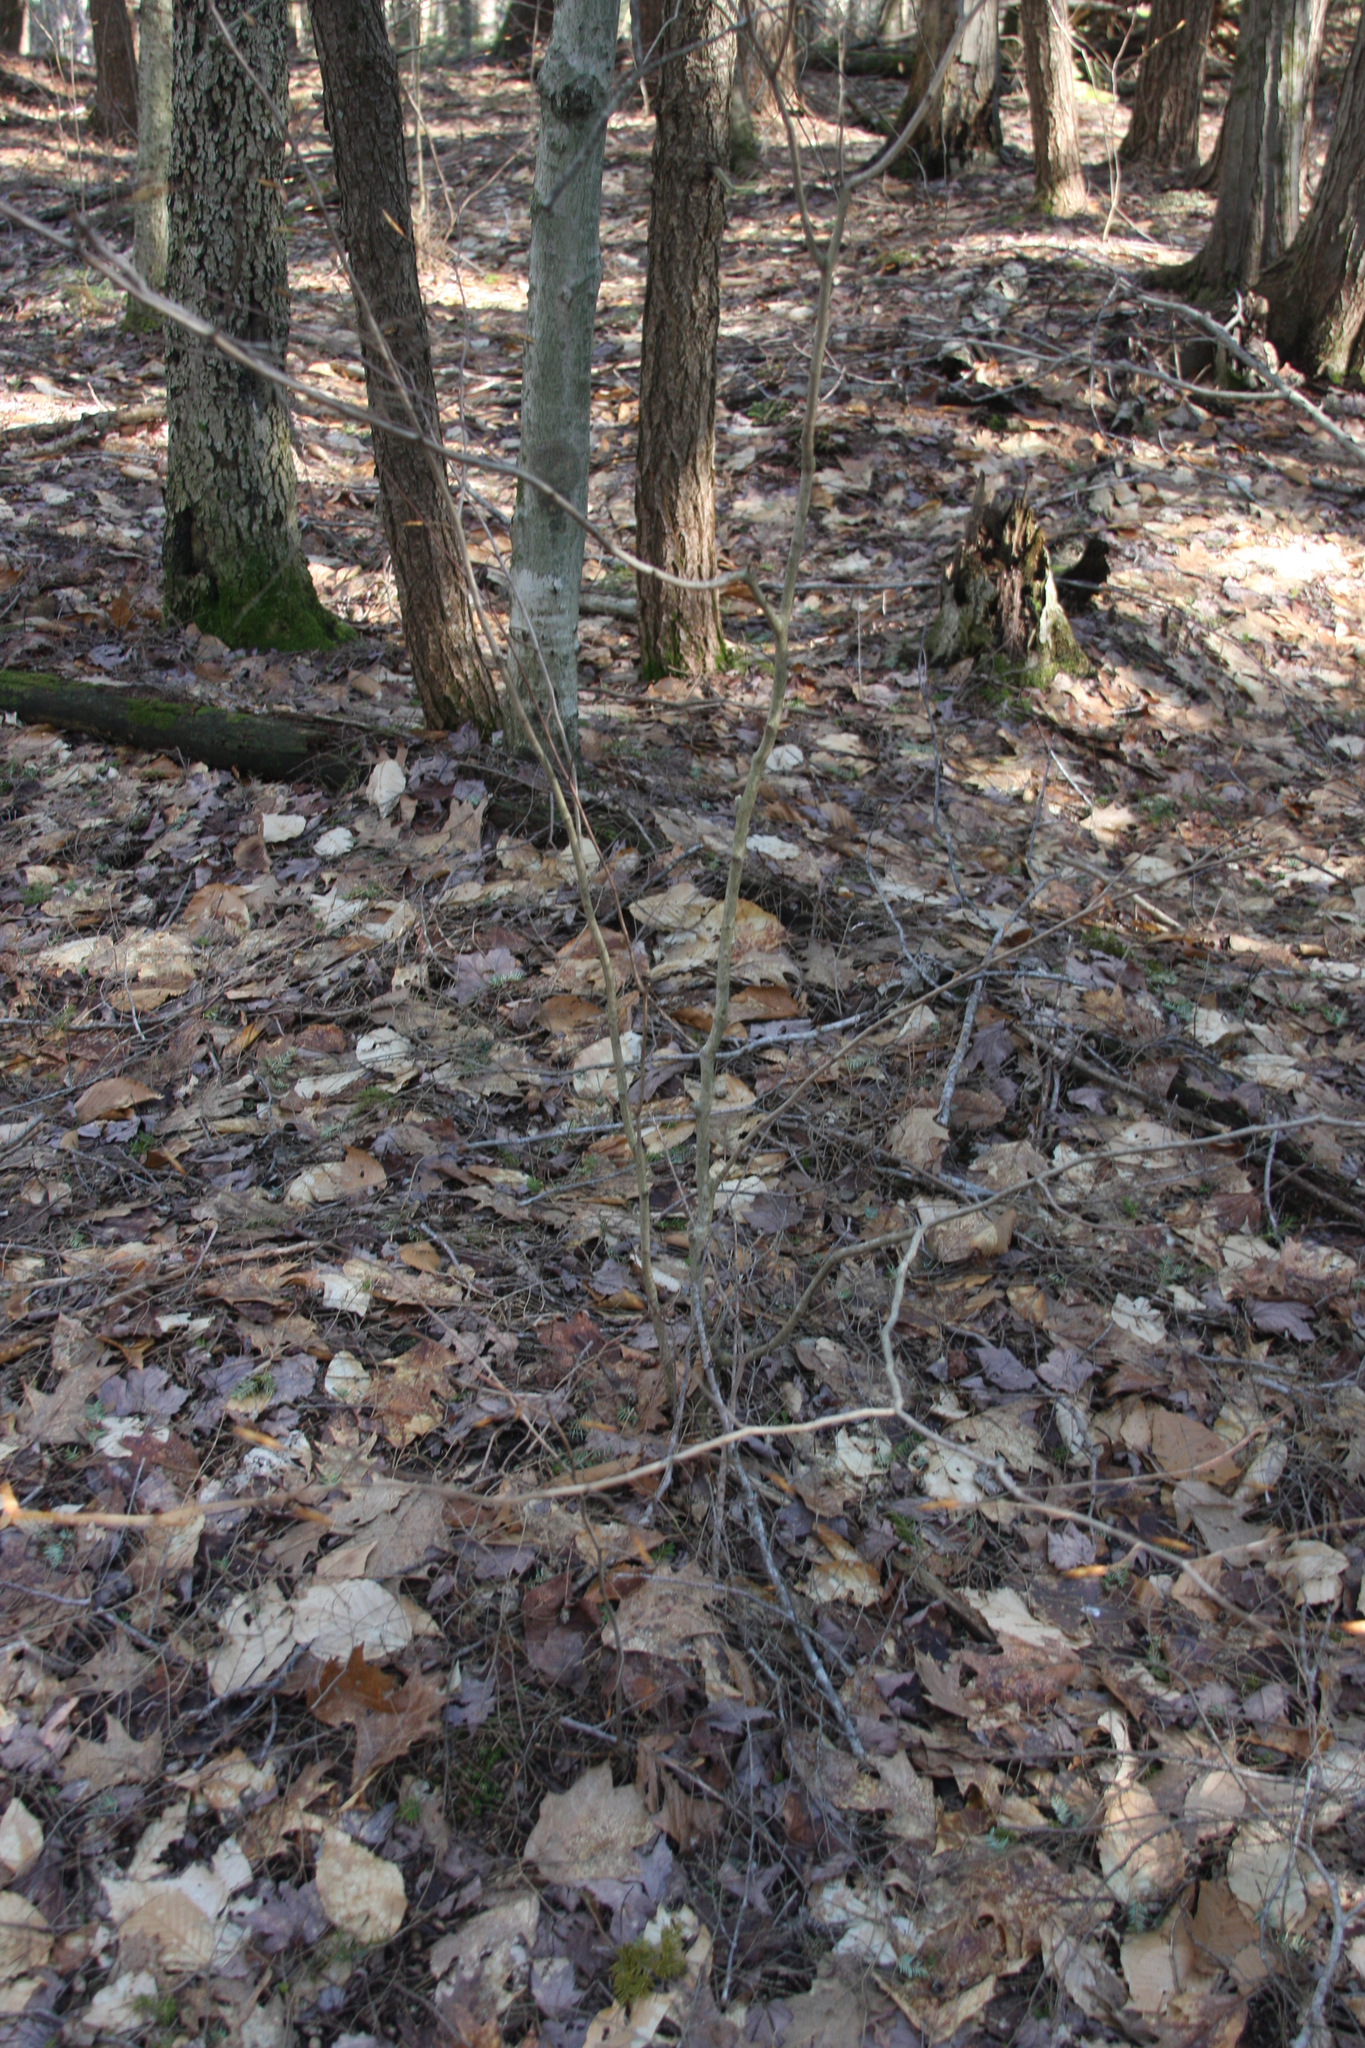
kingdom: Plantae
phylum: Tracheophyta
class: Magnoliopsida
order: Fagales
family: Fagaceae
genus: Fagus
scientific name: Fagus grandifolia
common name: American beech
